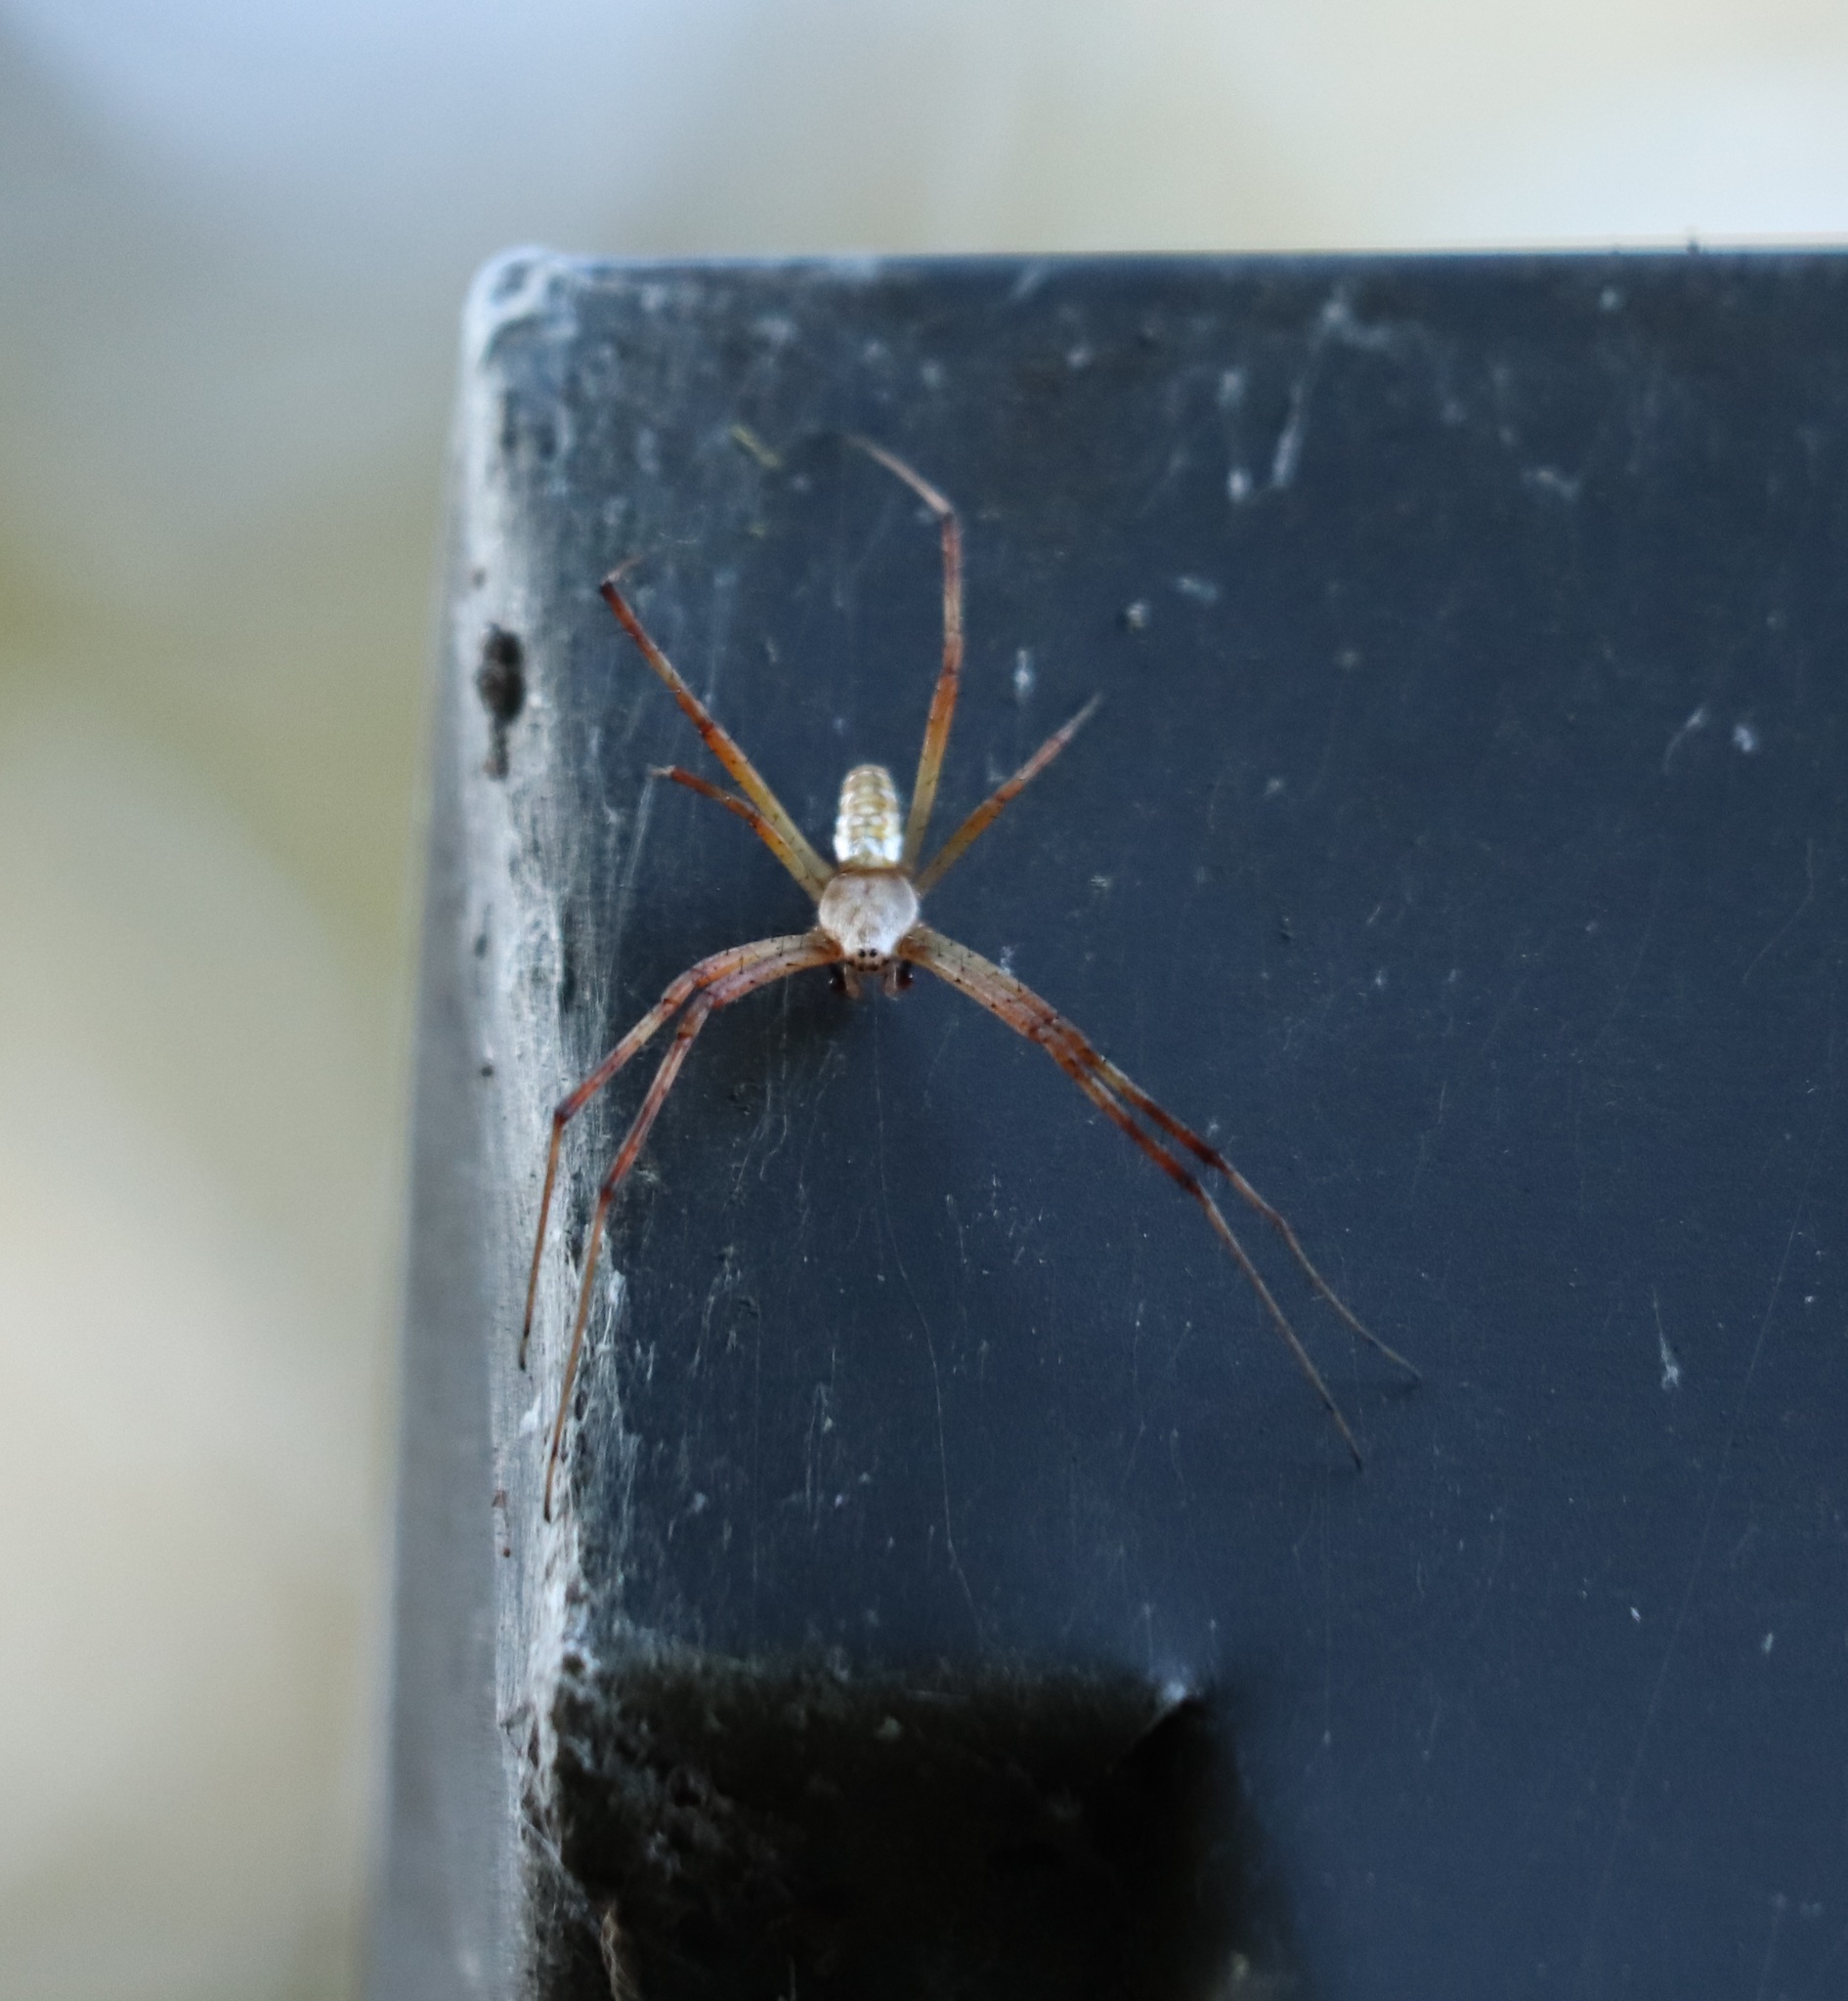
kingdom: Animalia
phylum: Arthropoda
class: Arachnida
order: Araneae
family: Araneidae
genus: Argiope
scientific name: Argiope bruennichi
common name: Wasp spider
